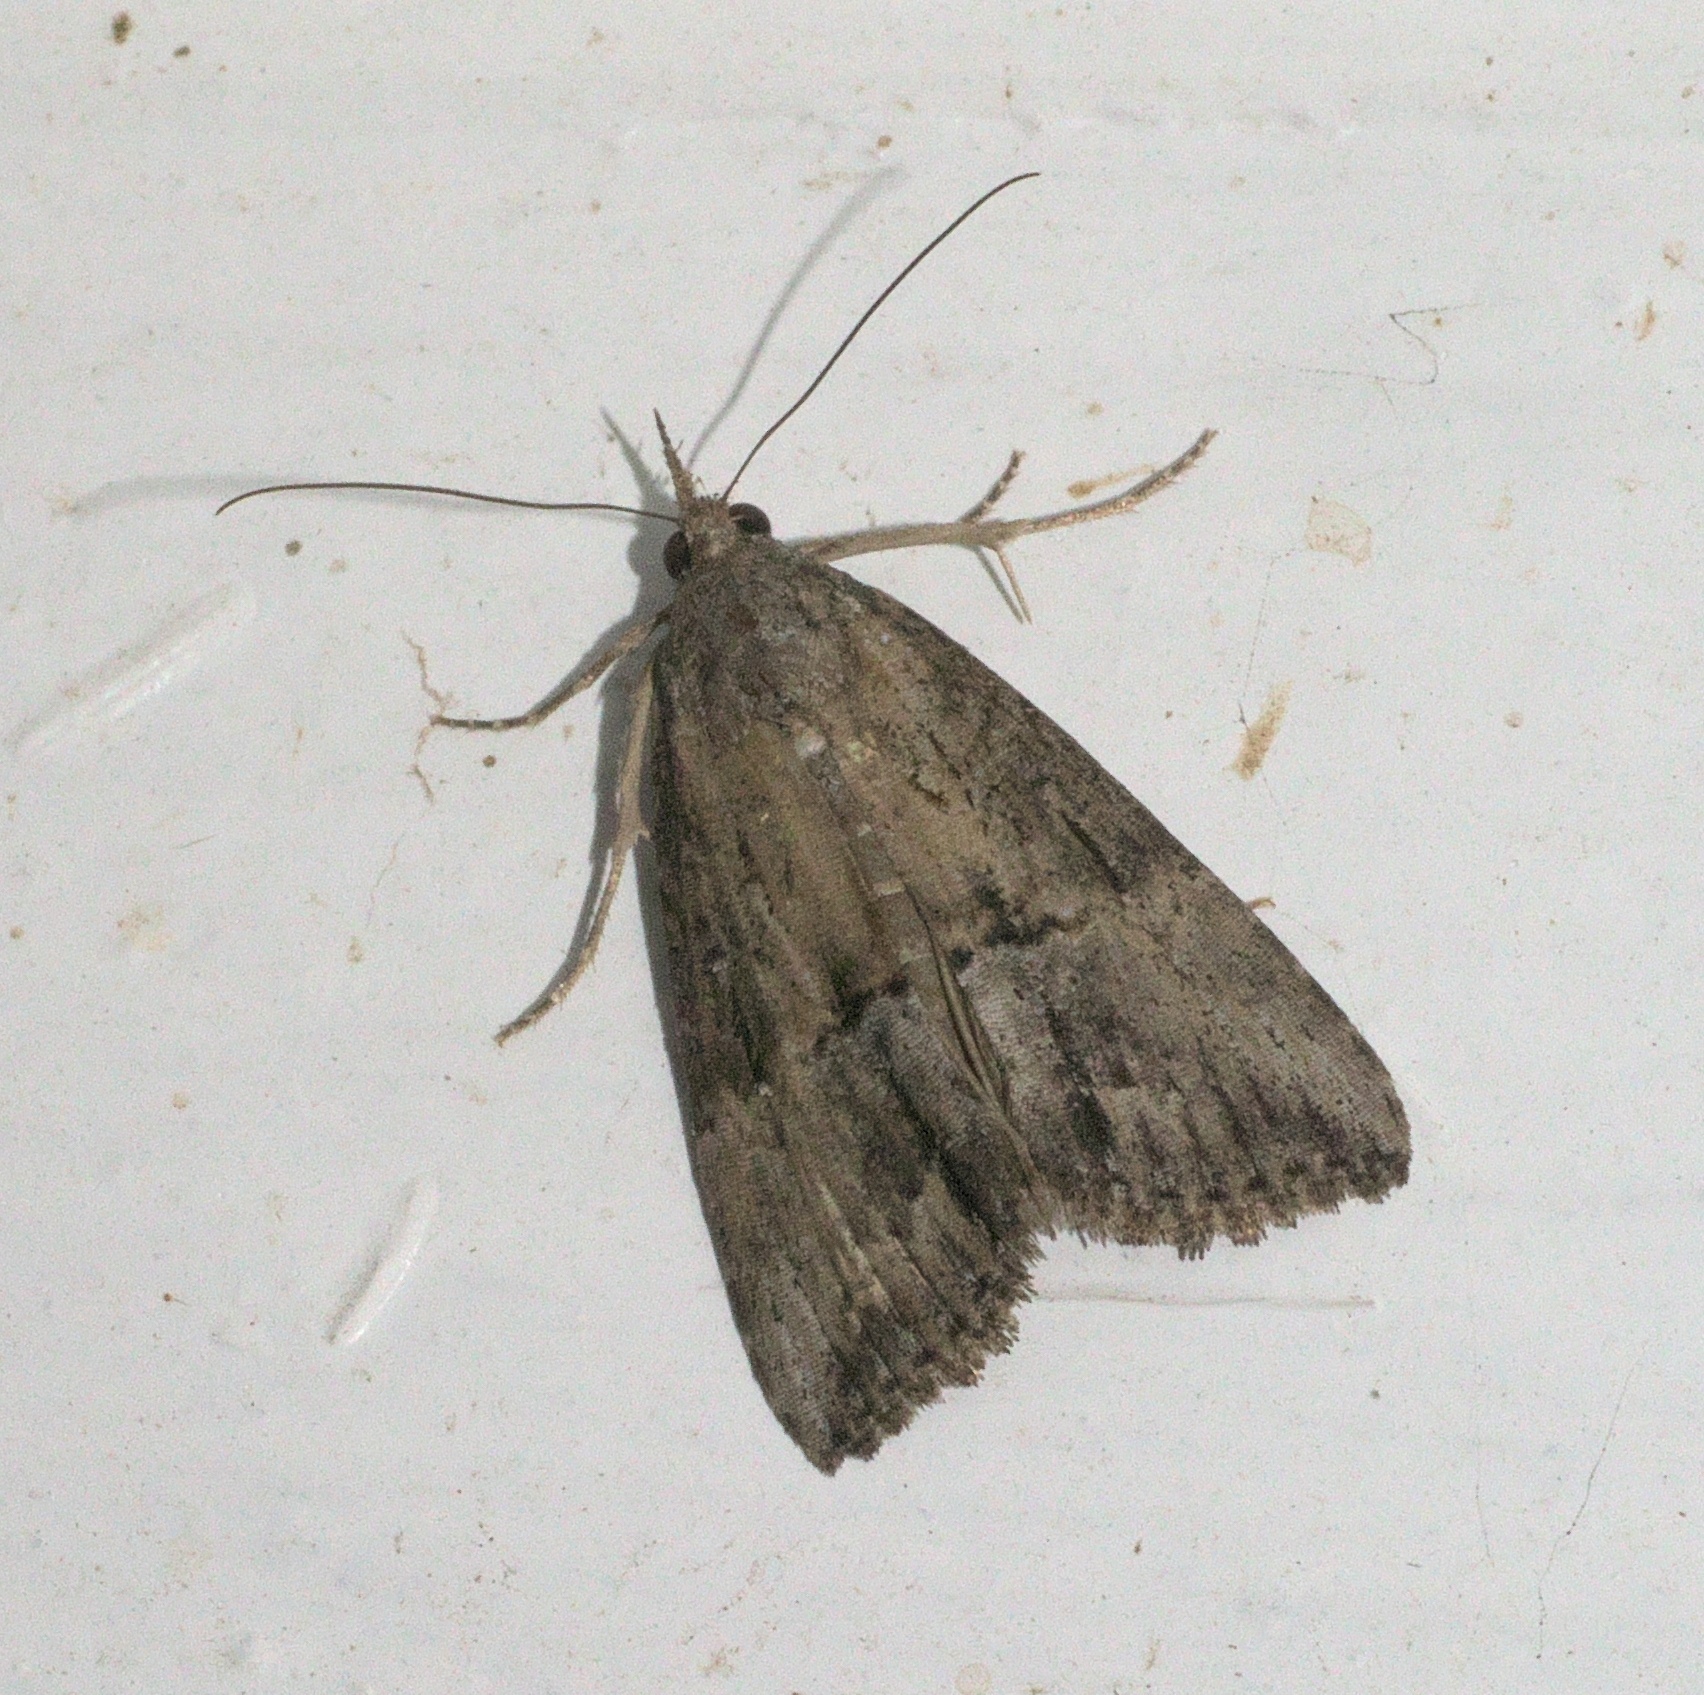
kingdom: Animalia
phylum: Arthropoda
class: Insecta
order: Lepidoptera
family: Erebidae
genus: Hypena
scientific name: Hypena scabra
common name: Green cloverworm
